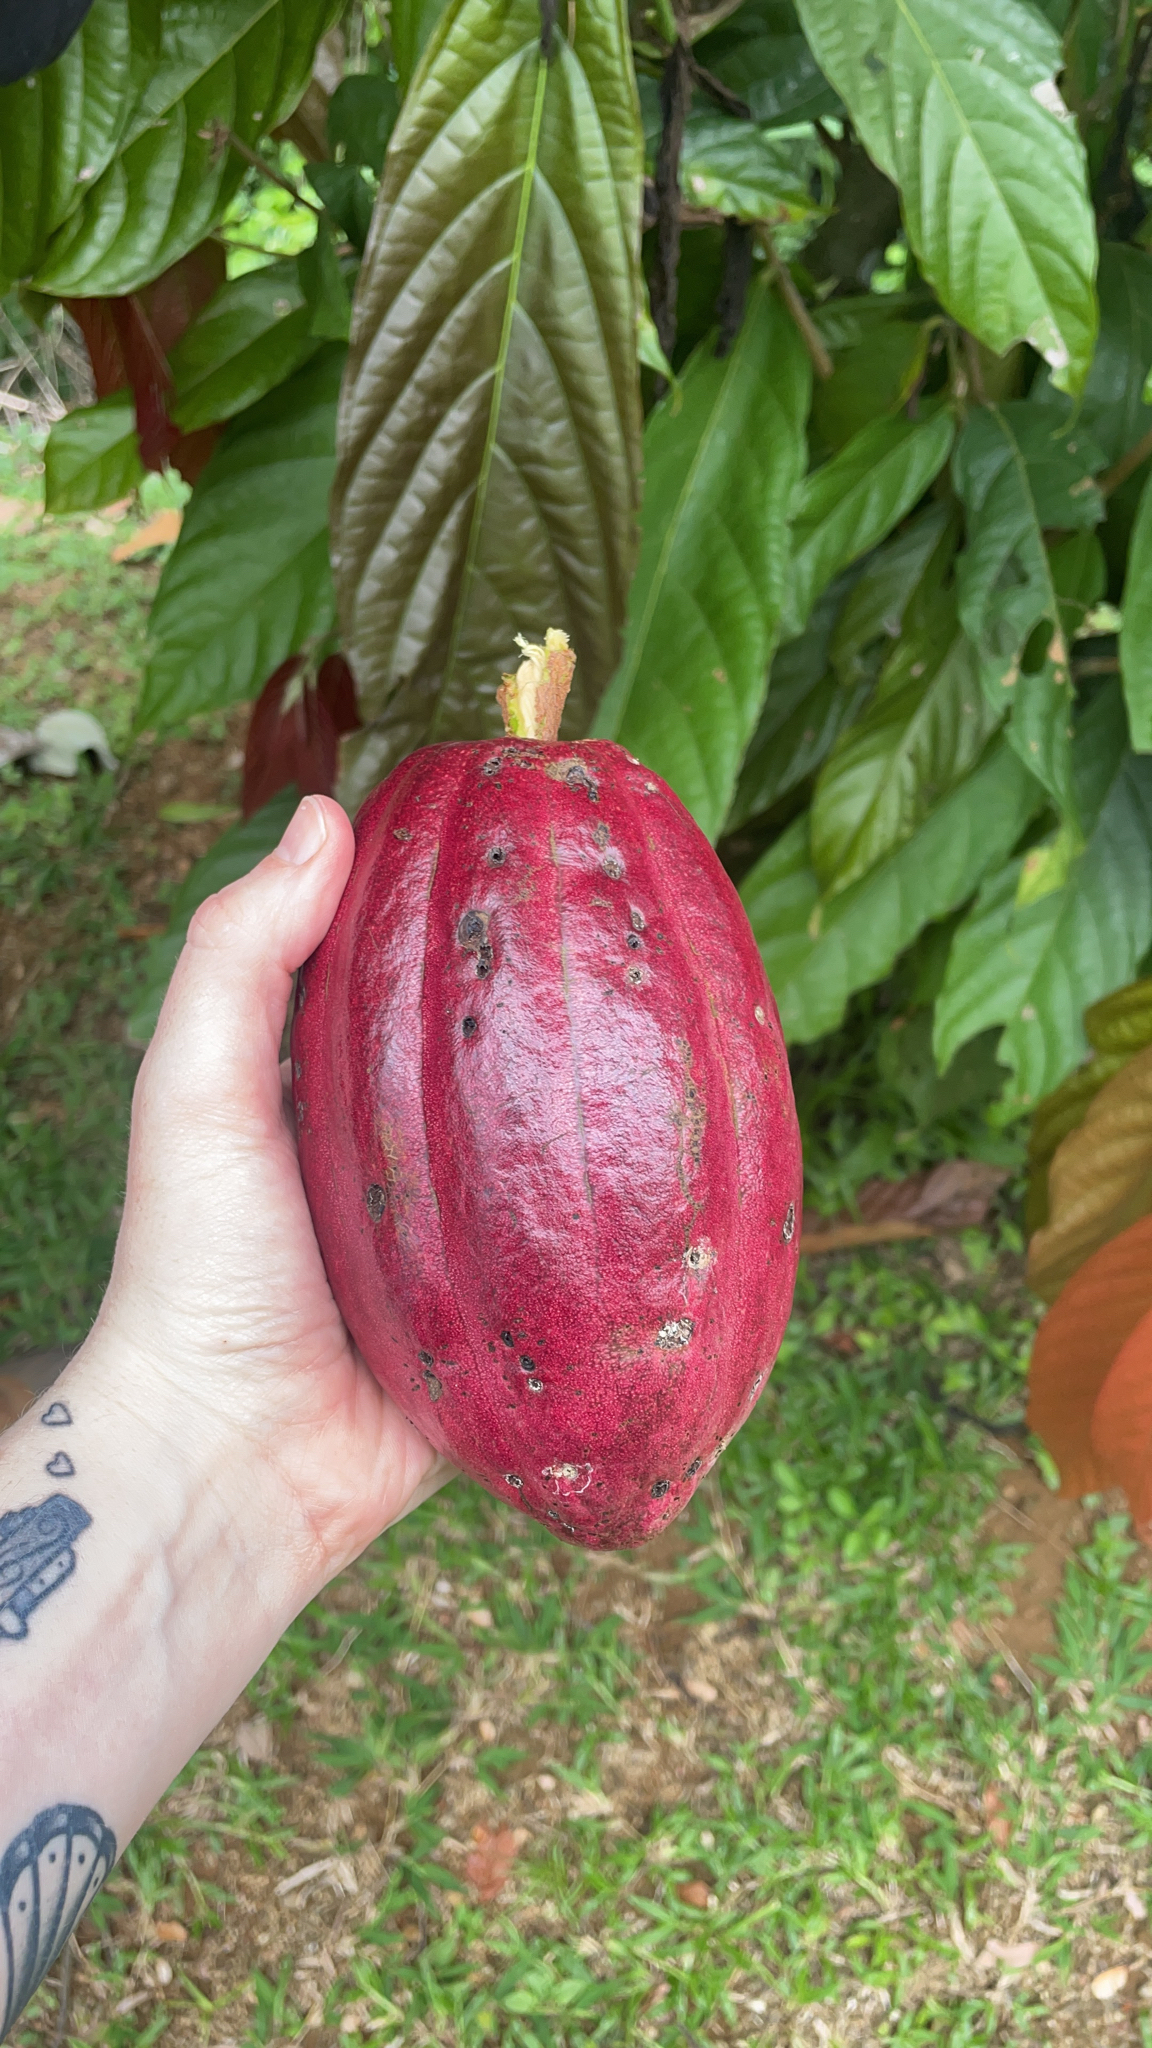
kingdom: Plantae
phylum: Tracheophyta
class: Magnoliopsida
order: Malvales
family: Malvaceae
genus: Theobroma
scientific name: Theobroma cacao
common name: Cocoa
